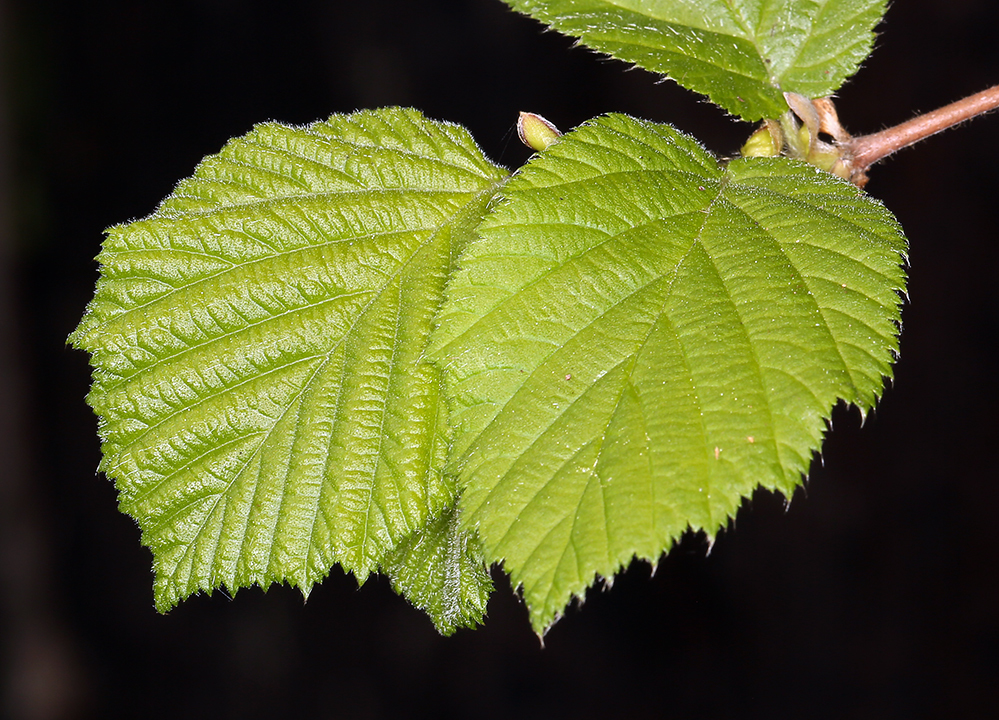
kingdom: Plantae
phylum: Tracheophyta
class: Magnoliopsida
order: Fagales
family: Betulaceae
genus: Corylus
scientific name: Corylus cornuta
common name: Beaked hazel
